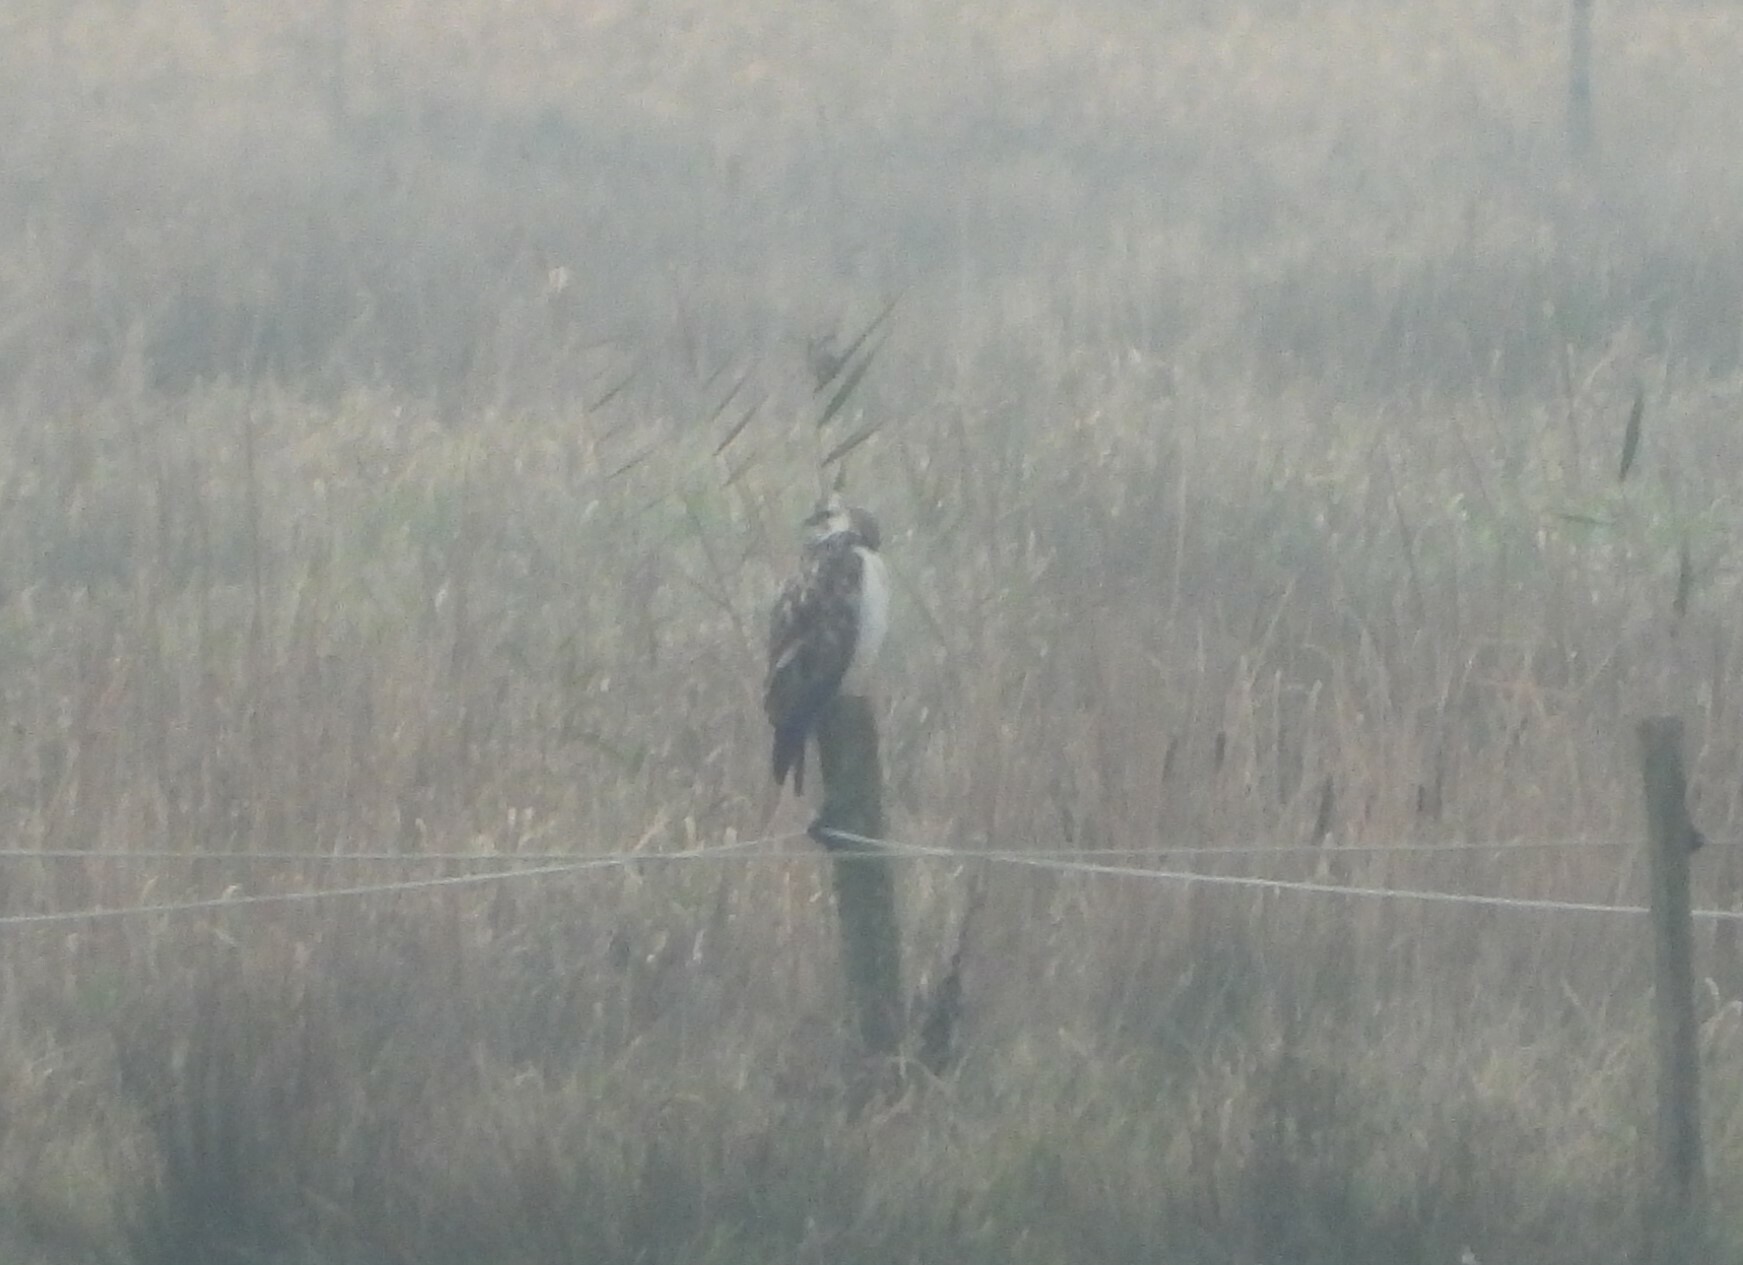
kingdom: Animalia
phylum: Chordata
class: Aves
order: Accipitriformes
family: Accipitridae
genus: Buteo
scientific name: Buteo buteo
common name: Common buzzard
